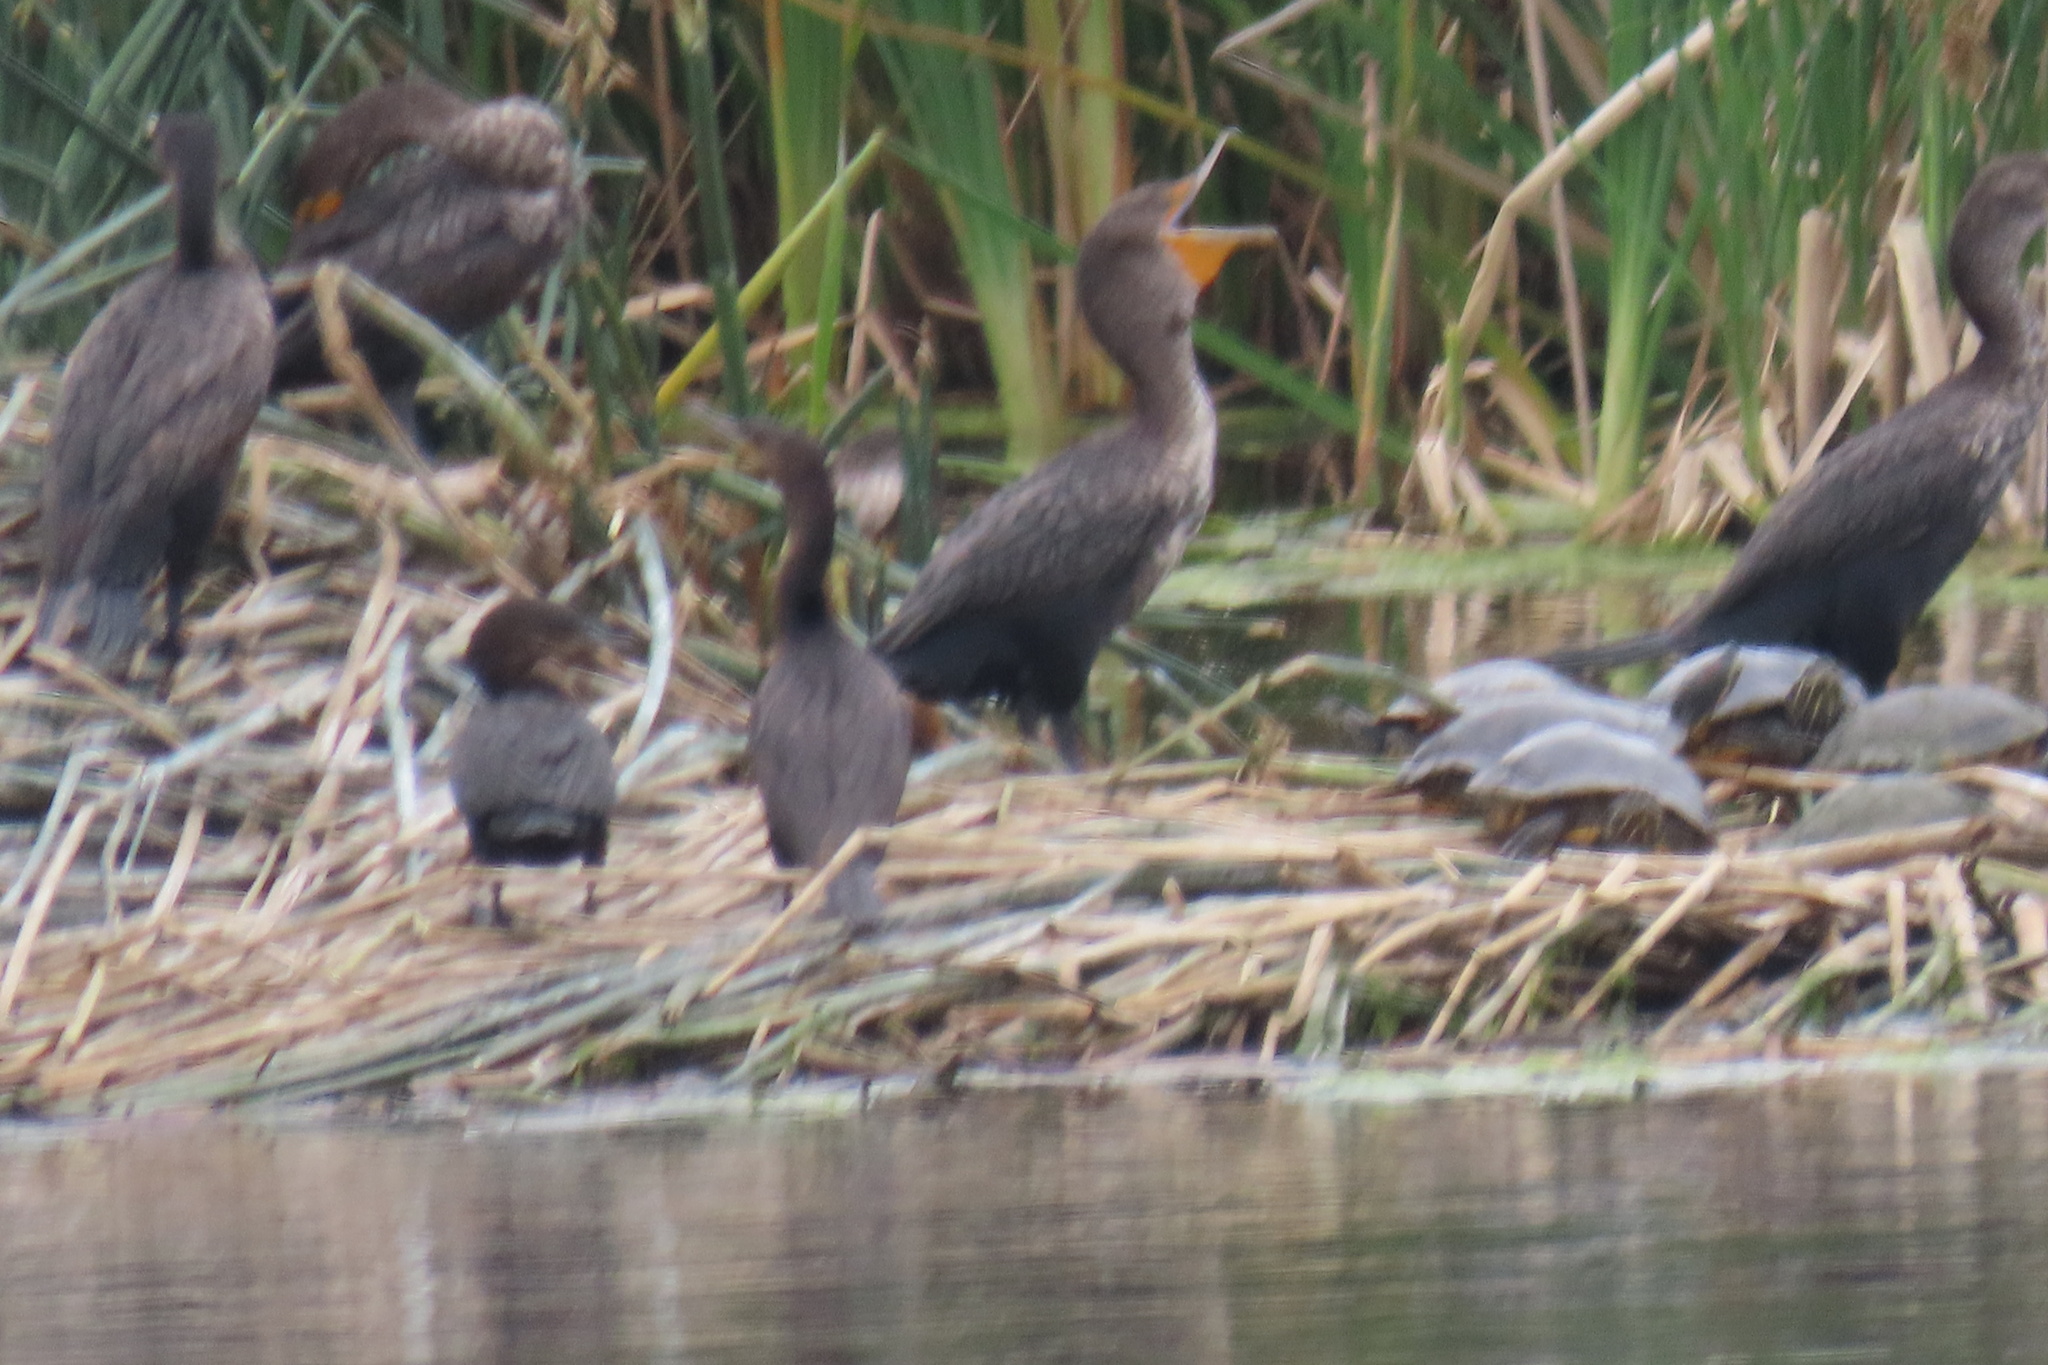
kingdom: Animalia
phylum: Chordata
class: Aves
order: Suliformes
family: Phalacrocoracidae
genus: Phalacrocorax
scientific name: Phalacrocorax auritus
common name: Double-crested cormorant
